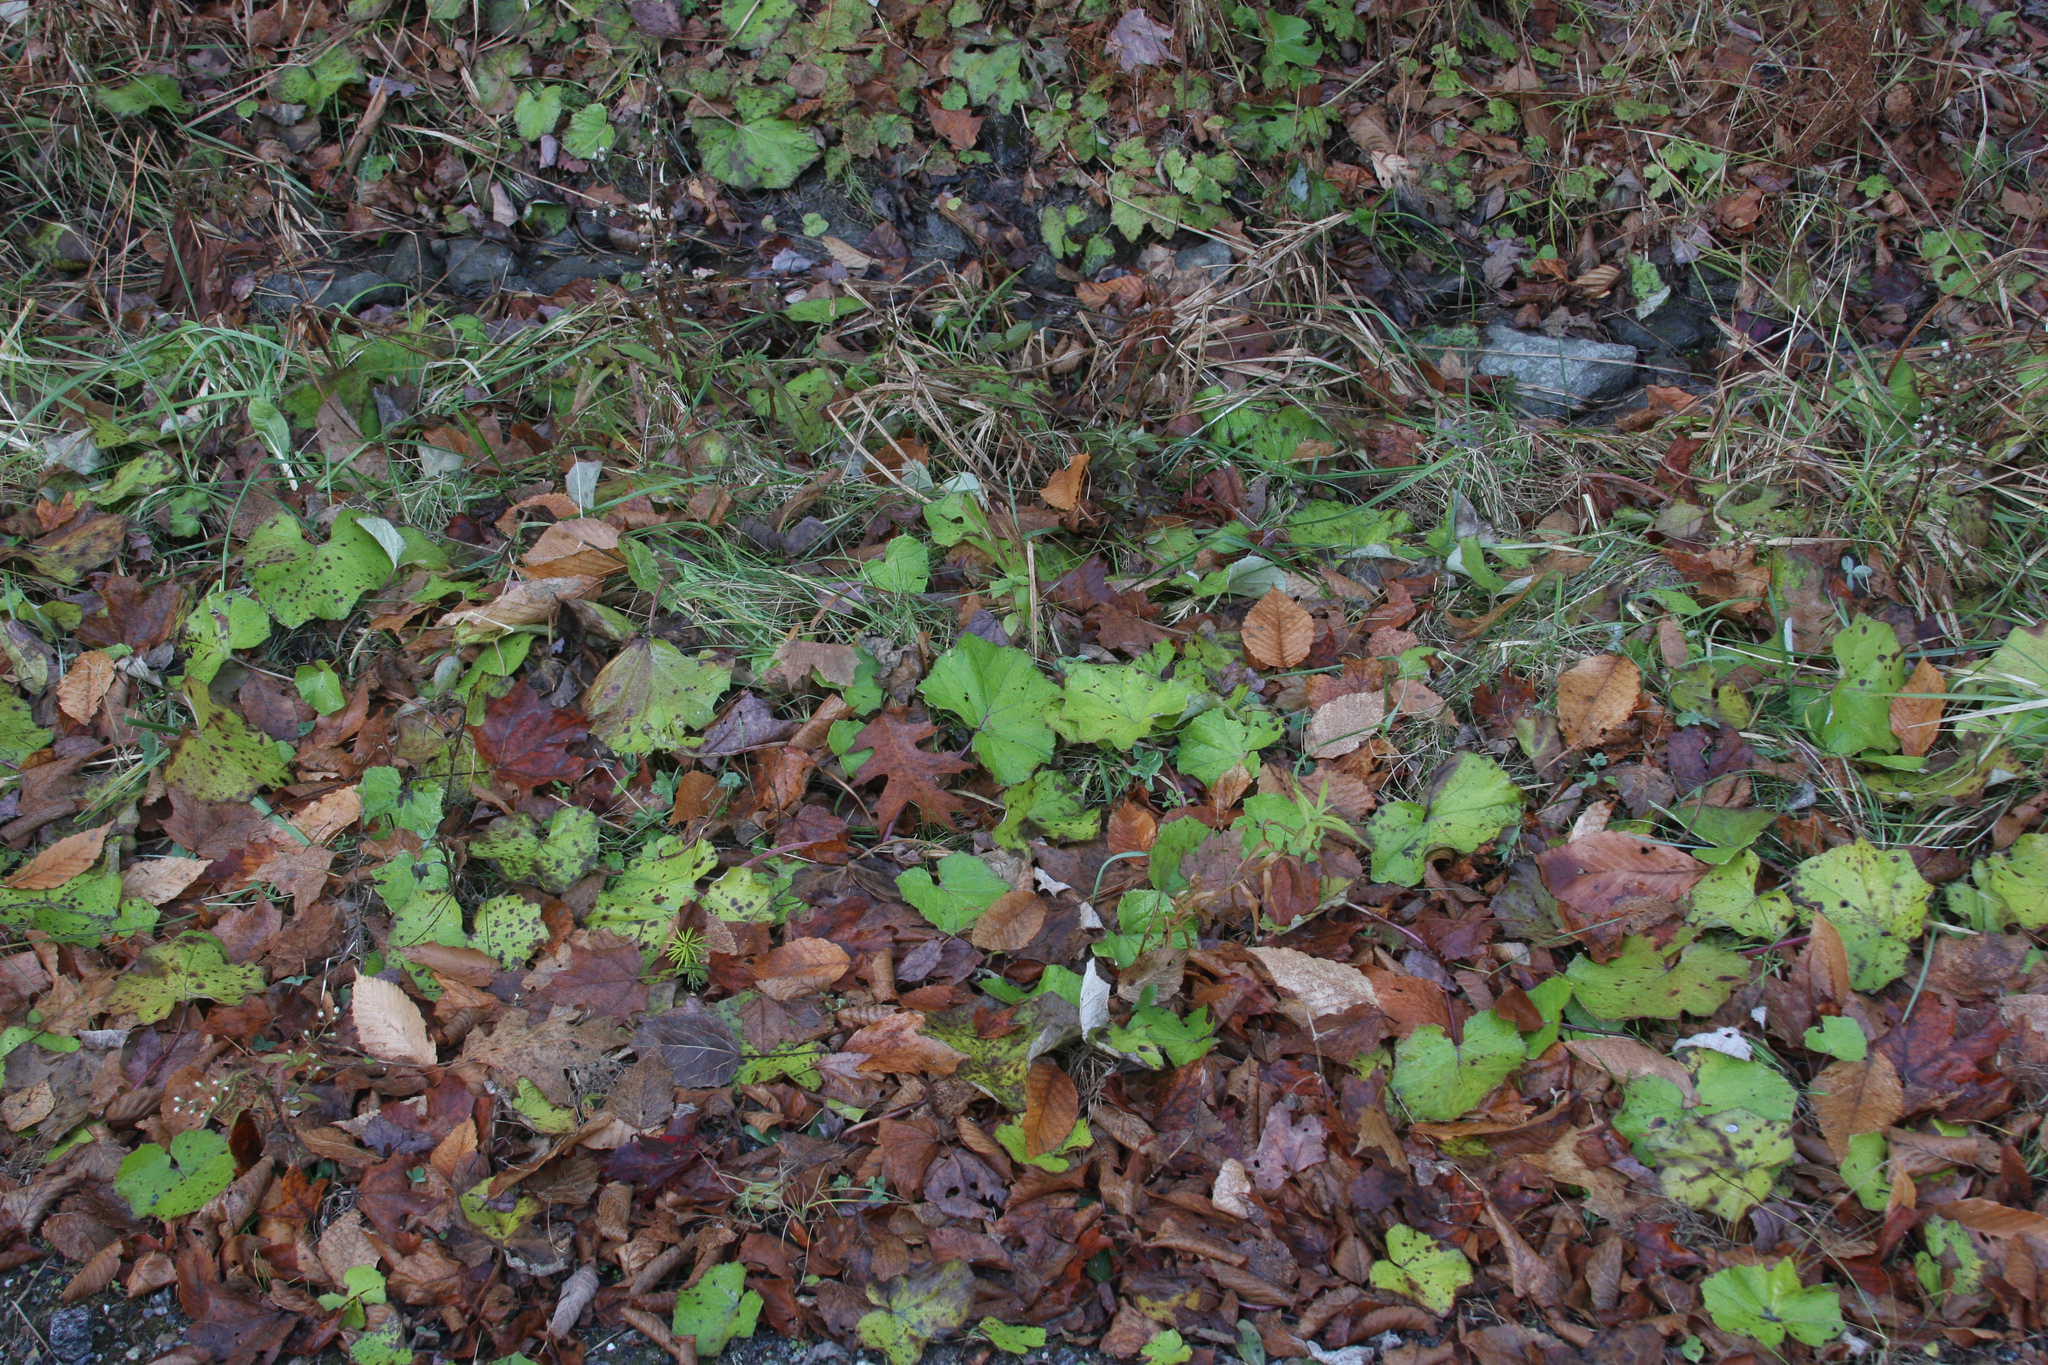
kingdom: Plantae
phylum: Tracheophyta
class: Magnoliopsida
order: Asterales
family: Asteraceae
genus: Tussilago
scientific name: Tussilago farfara
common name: Coltsfoot
